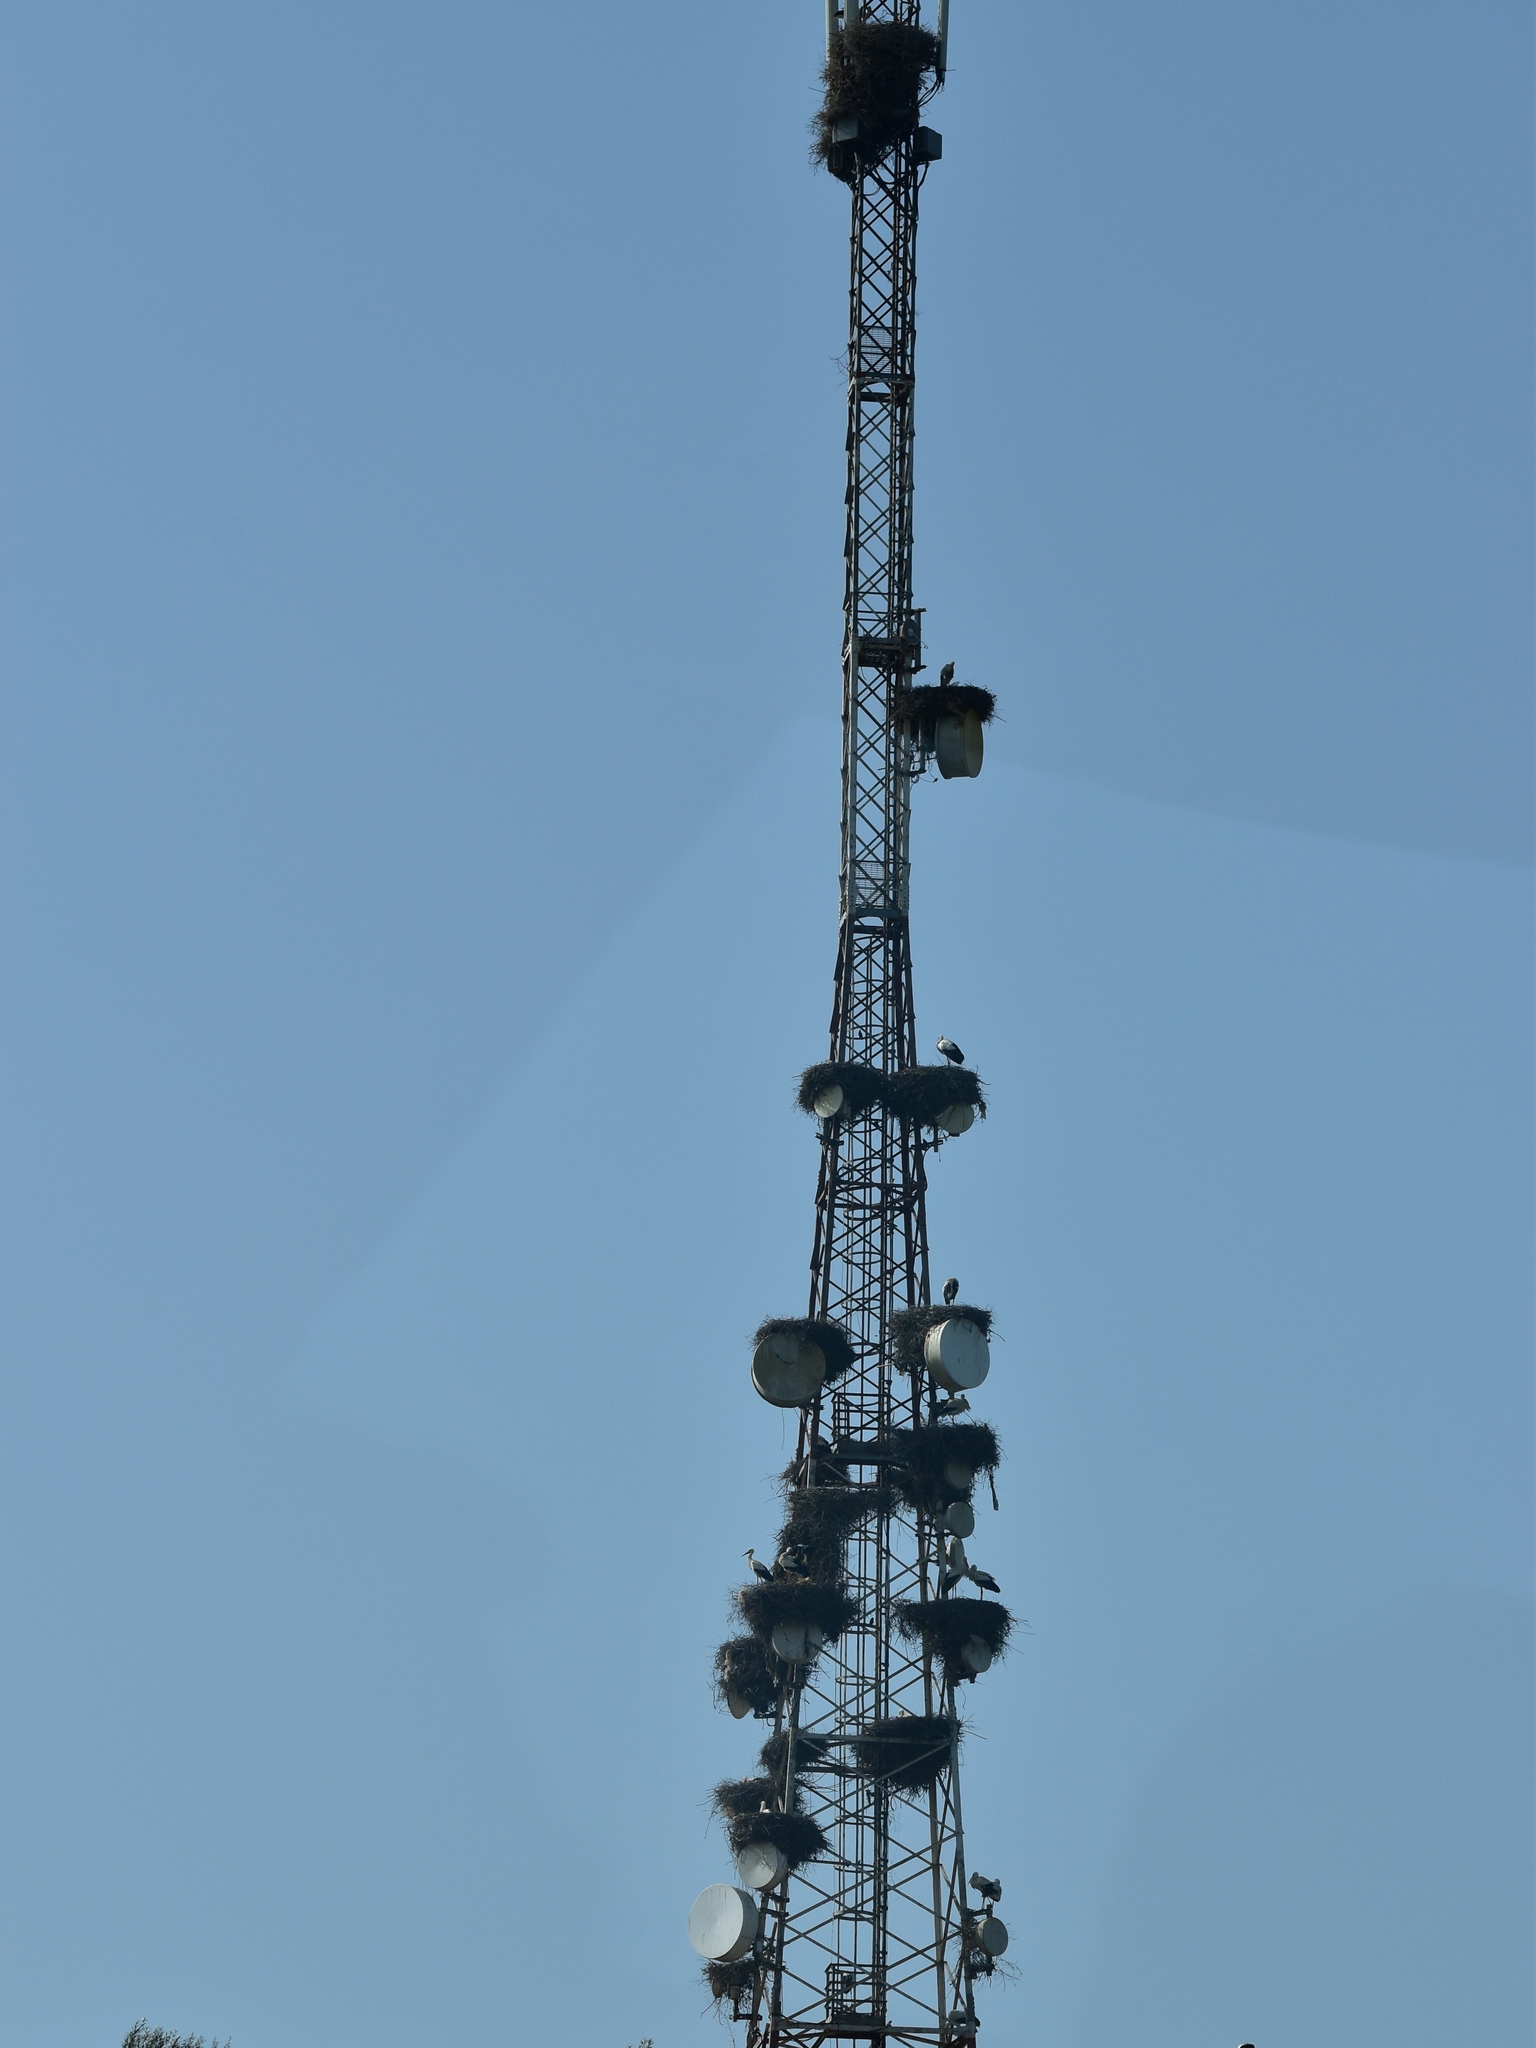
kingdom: Animalia
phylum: Chordata
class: Aves
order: Ciconiiformes
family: Ciconiidae
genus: Ciconia
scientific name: Ciconia ciconia
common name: White stork
